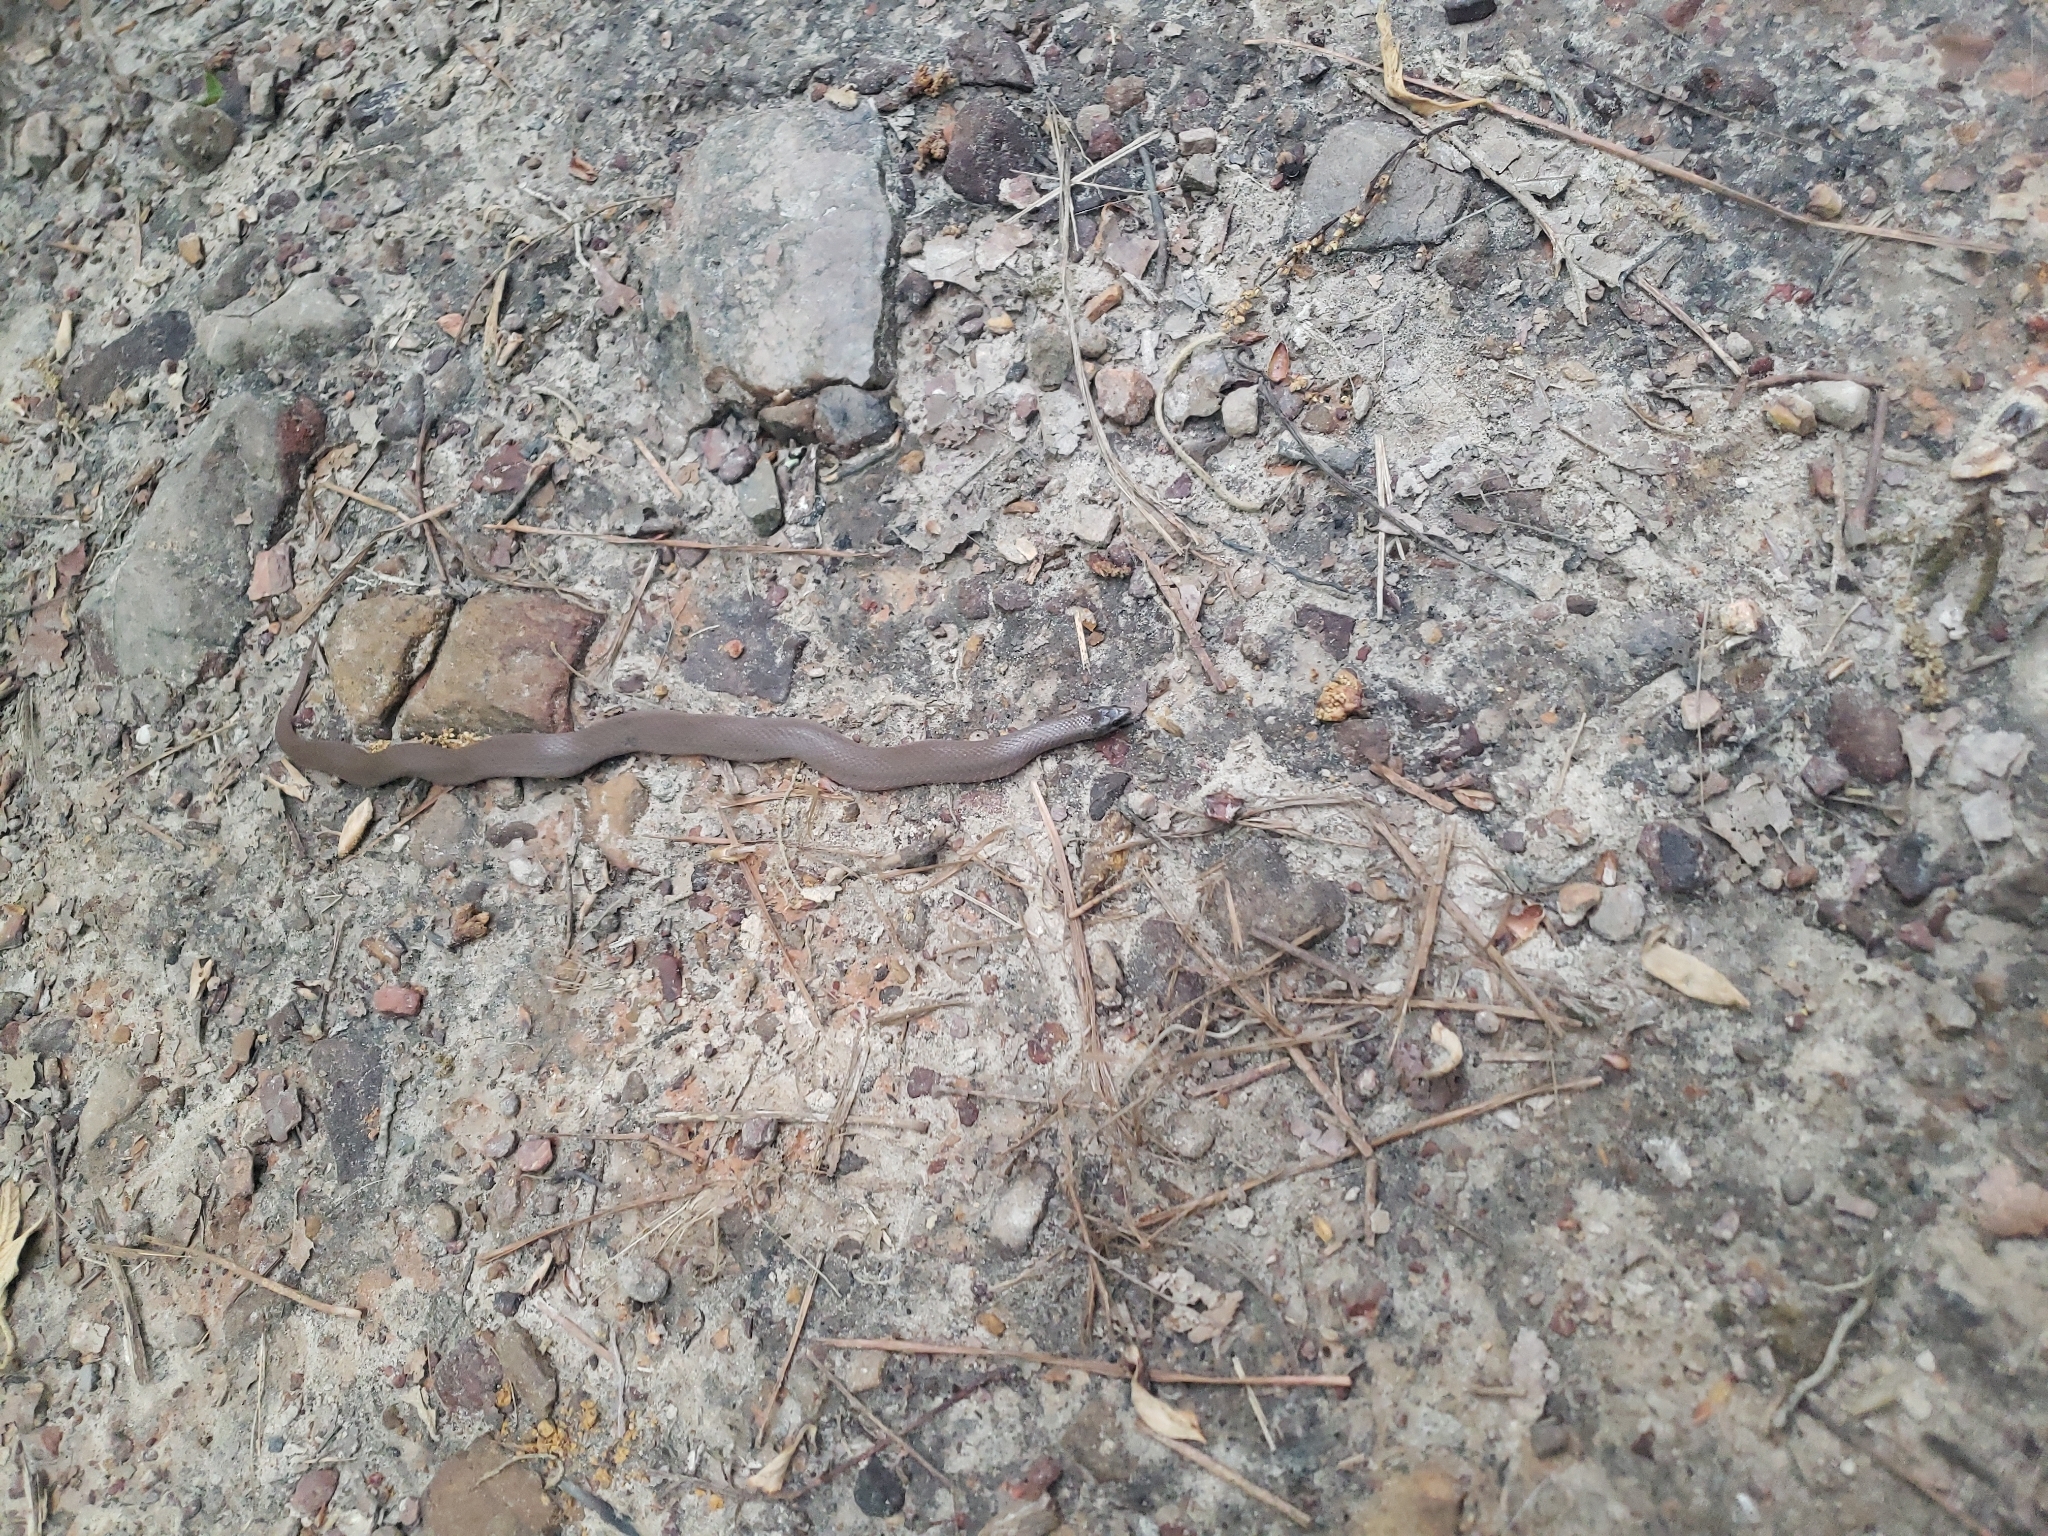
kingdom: Animalia
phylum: Chordata
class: Squamata
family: Colubridae
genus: Virginia
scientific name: Virginia valeriae
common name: Smooth earth snake
